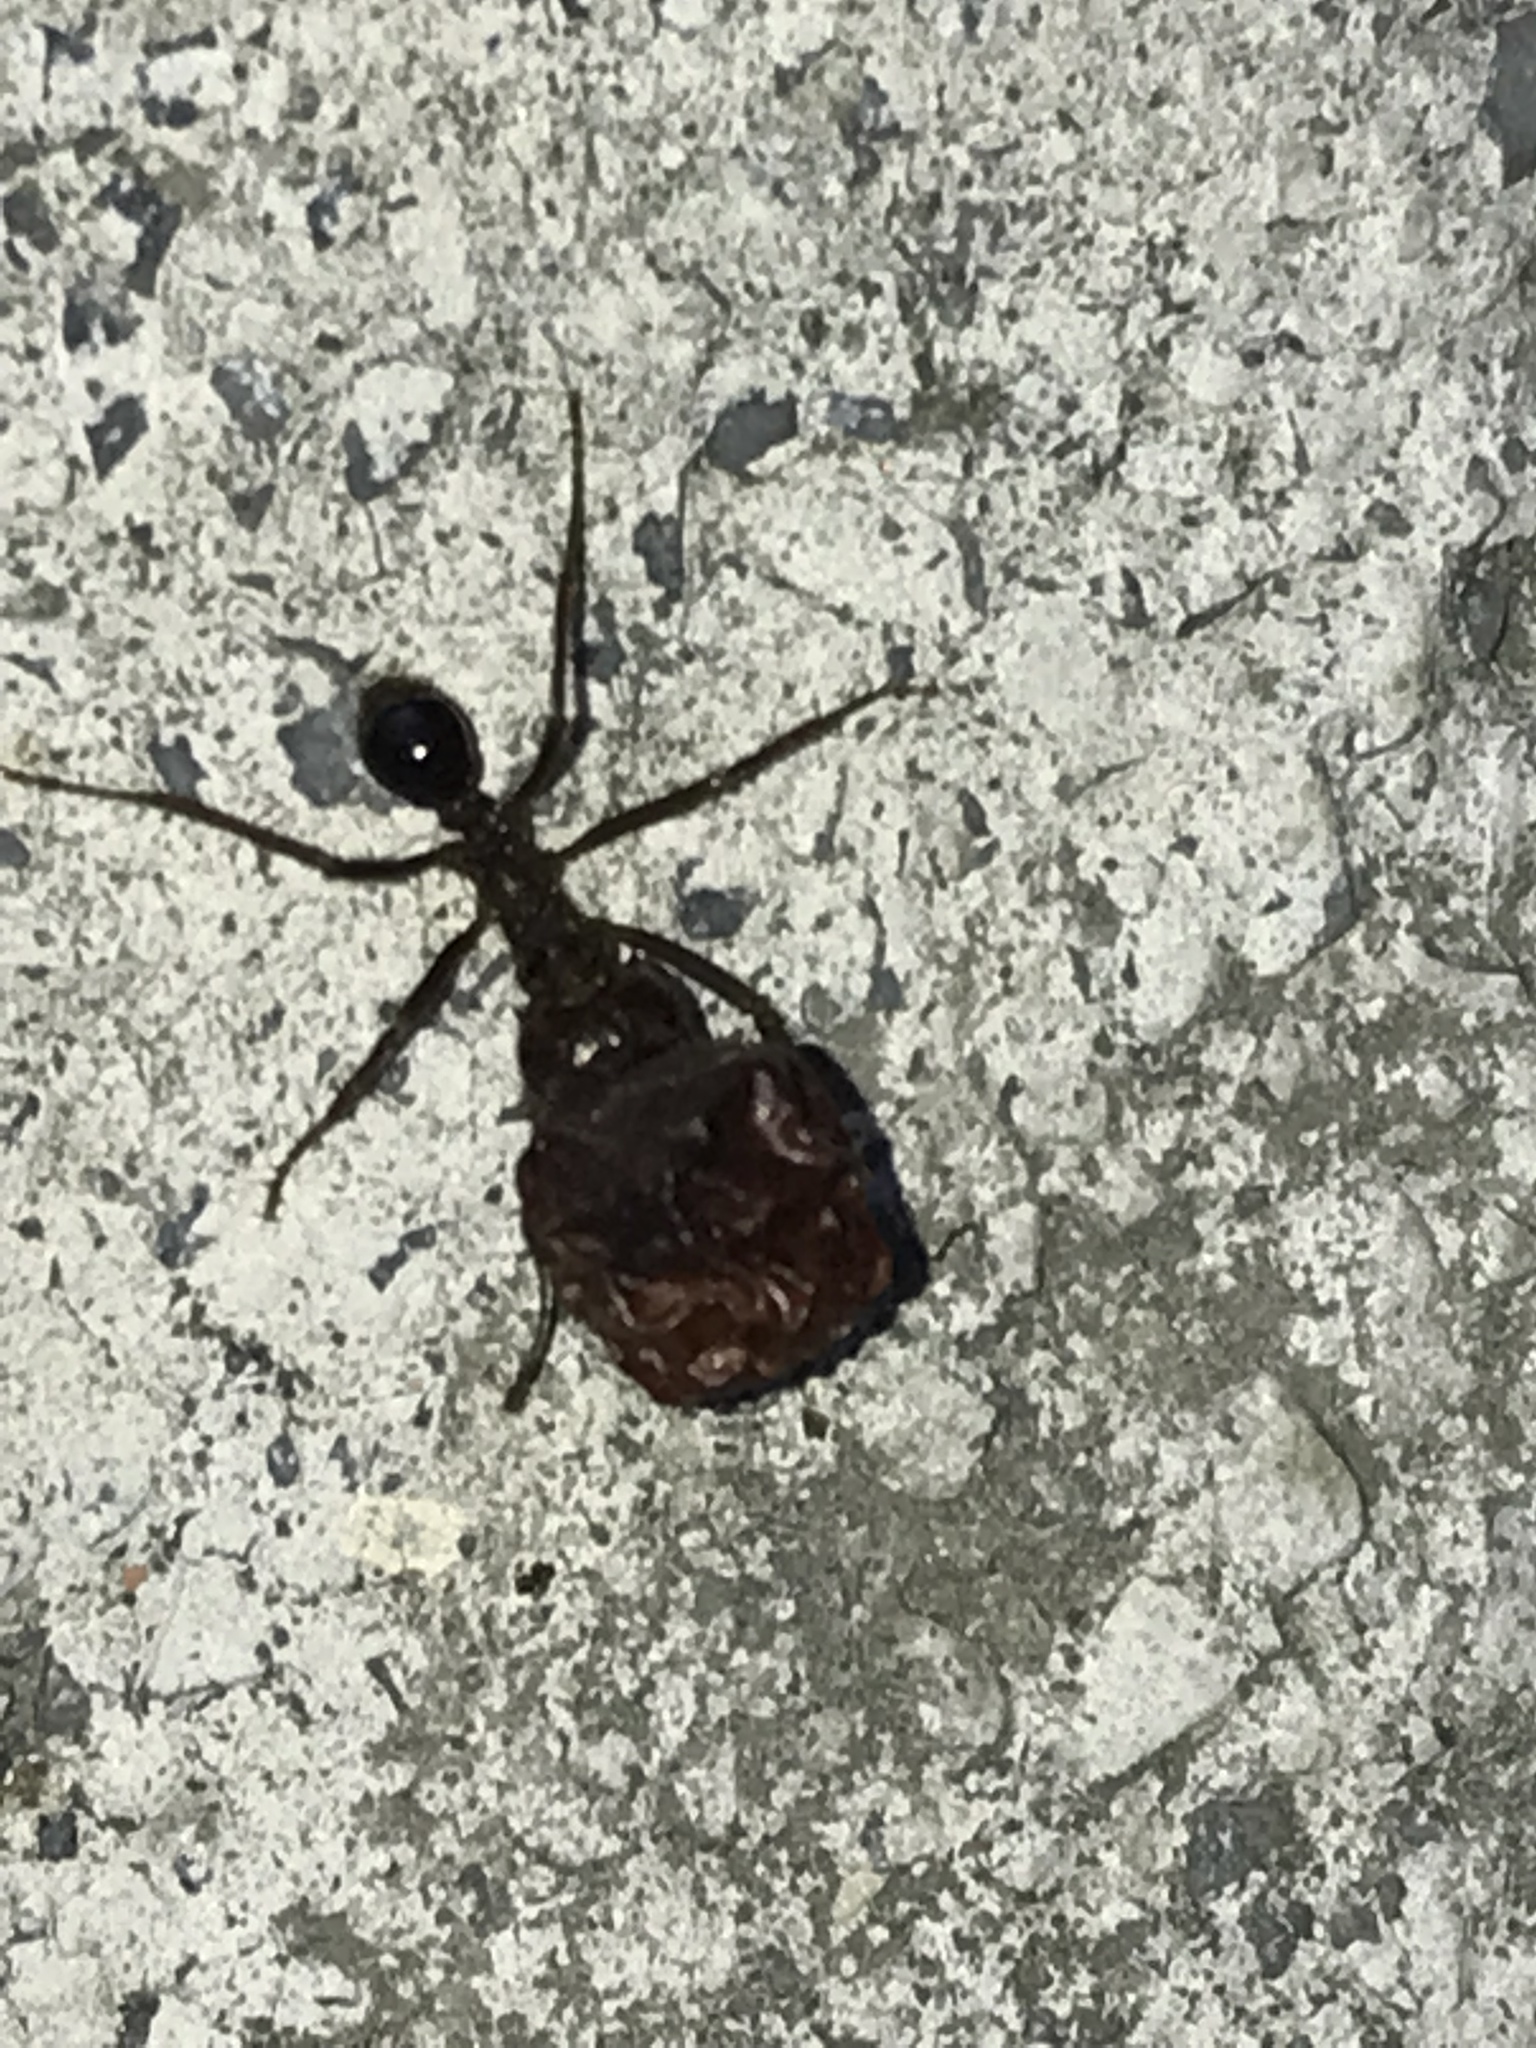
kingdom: Animalia
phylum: Arthropoda
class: Insecta
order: Hymenoptera
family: Formicidae
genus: Atta
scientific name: Atta mexicana
